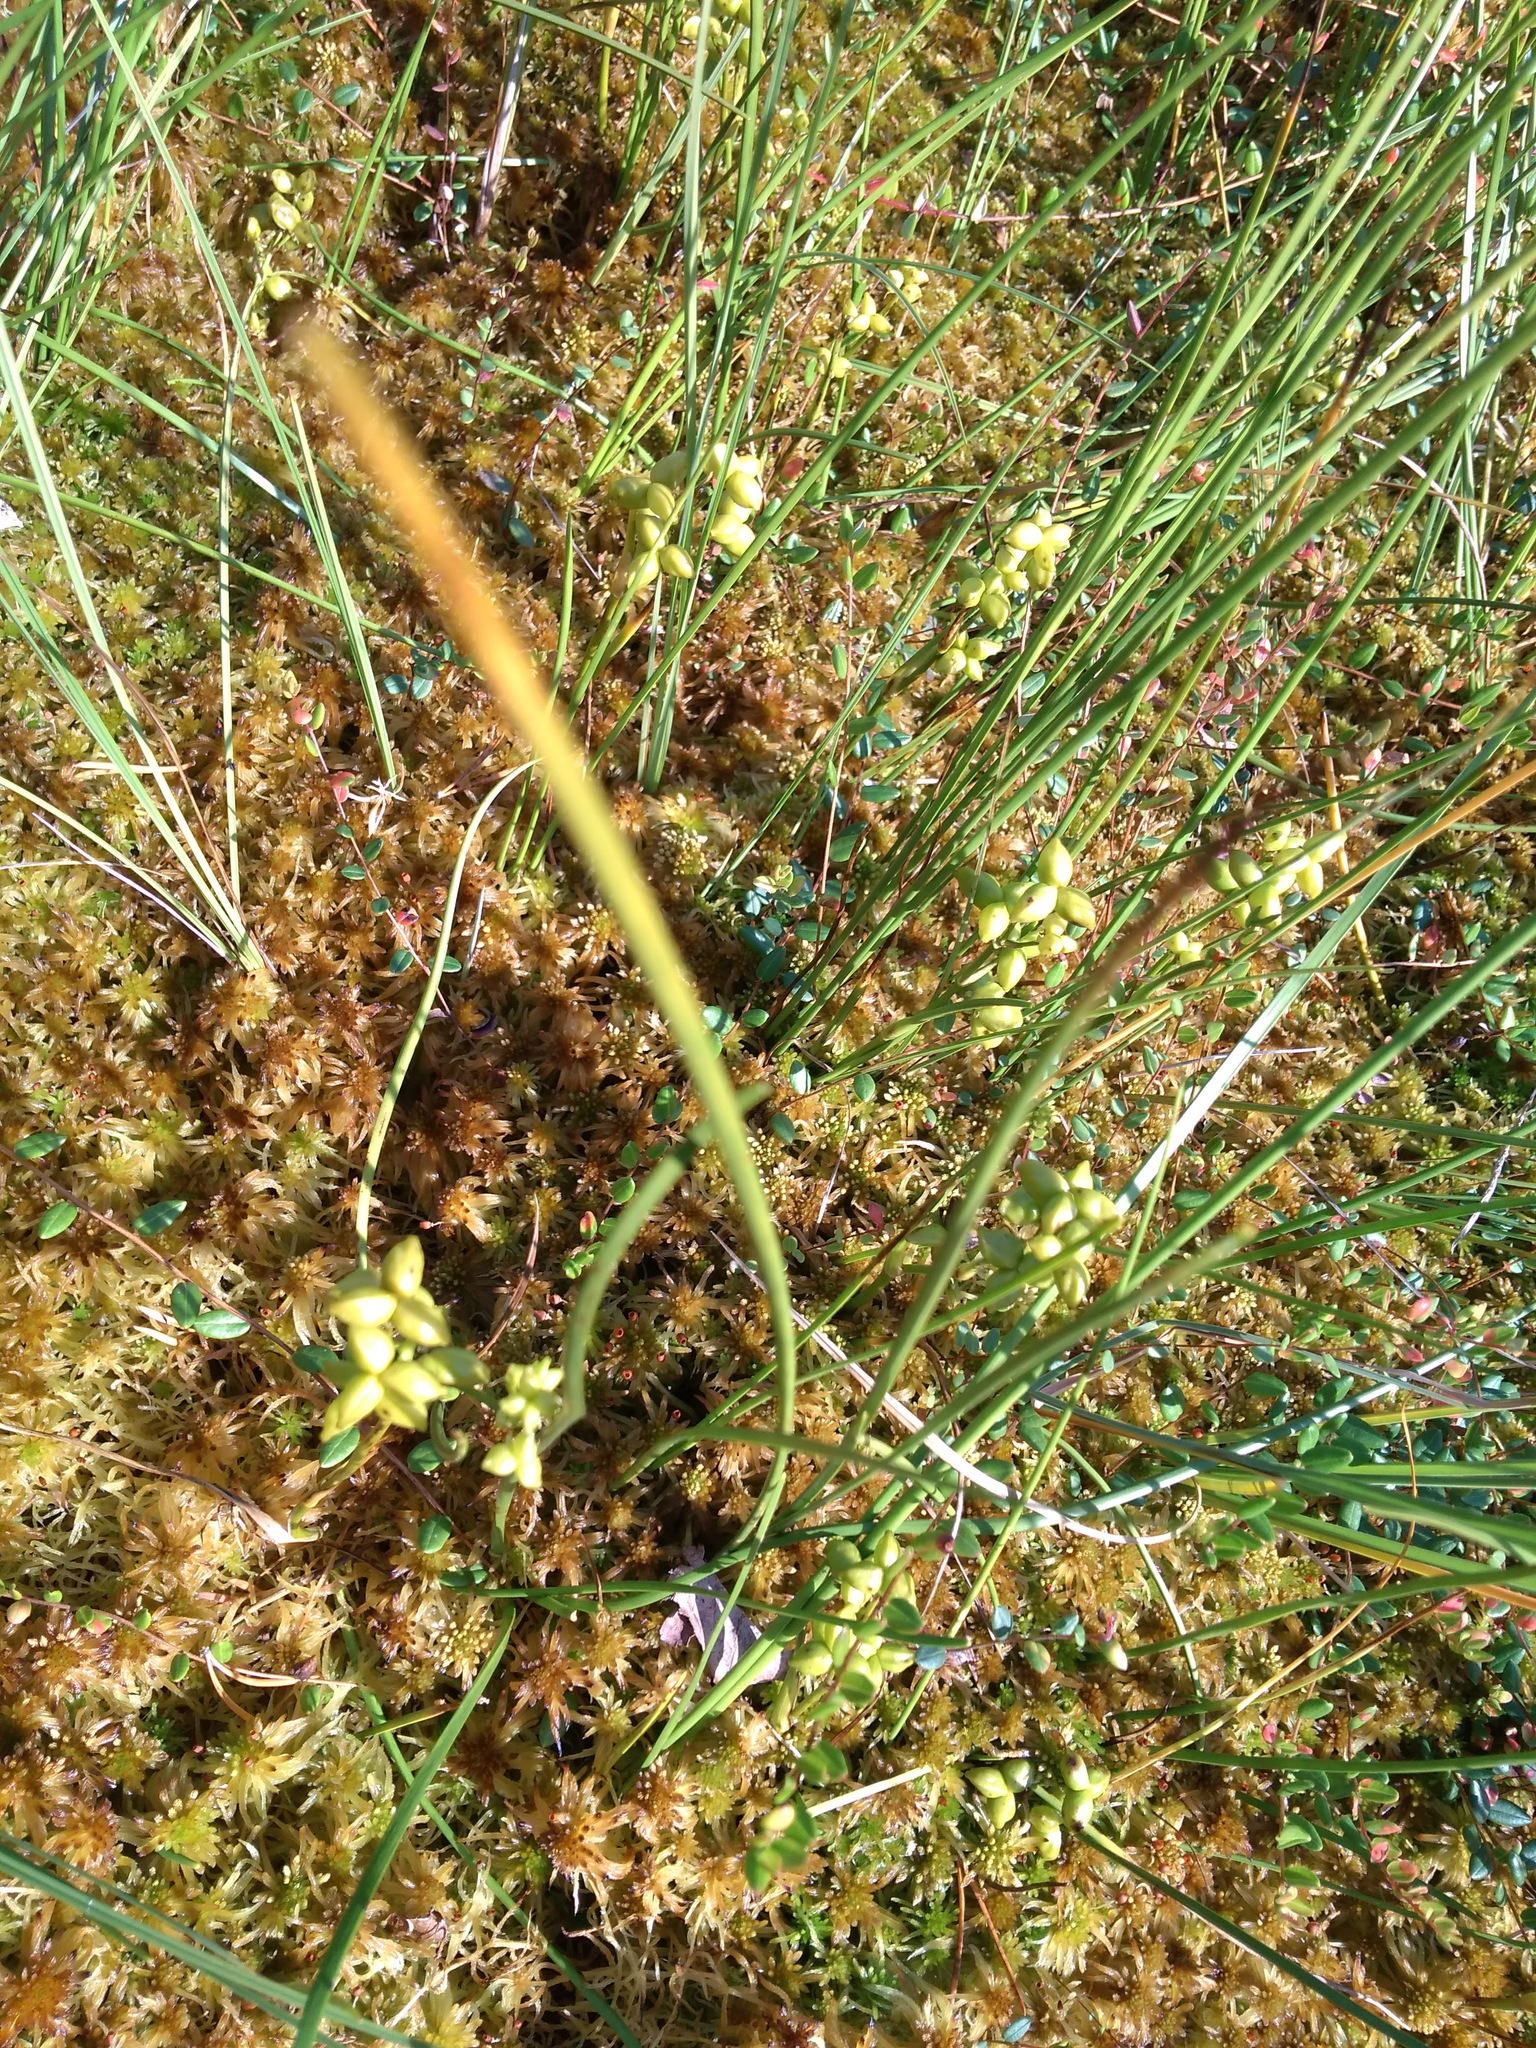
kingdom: Plantae
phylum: Tracheophyta
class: Liliopsida
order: Alismatales
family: Scheuchzeriaceae
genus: Scheuchzeria
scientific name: Scheuchzeria palustris
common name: Rannoch-rush
